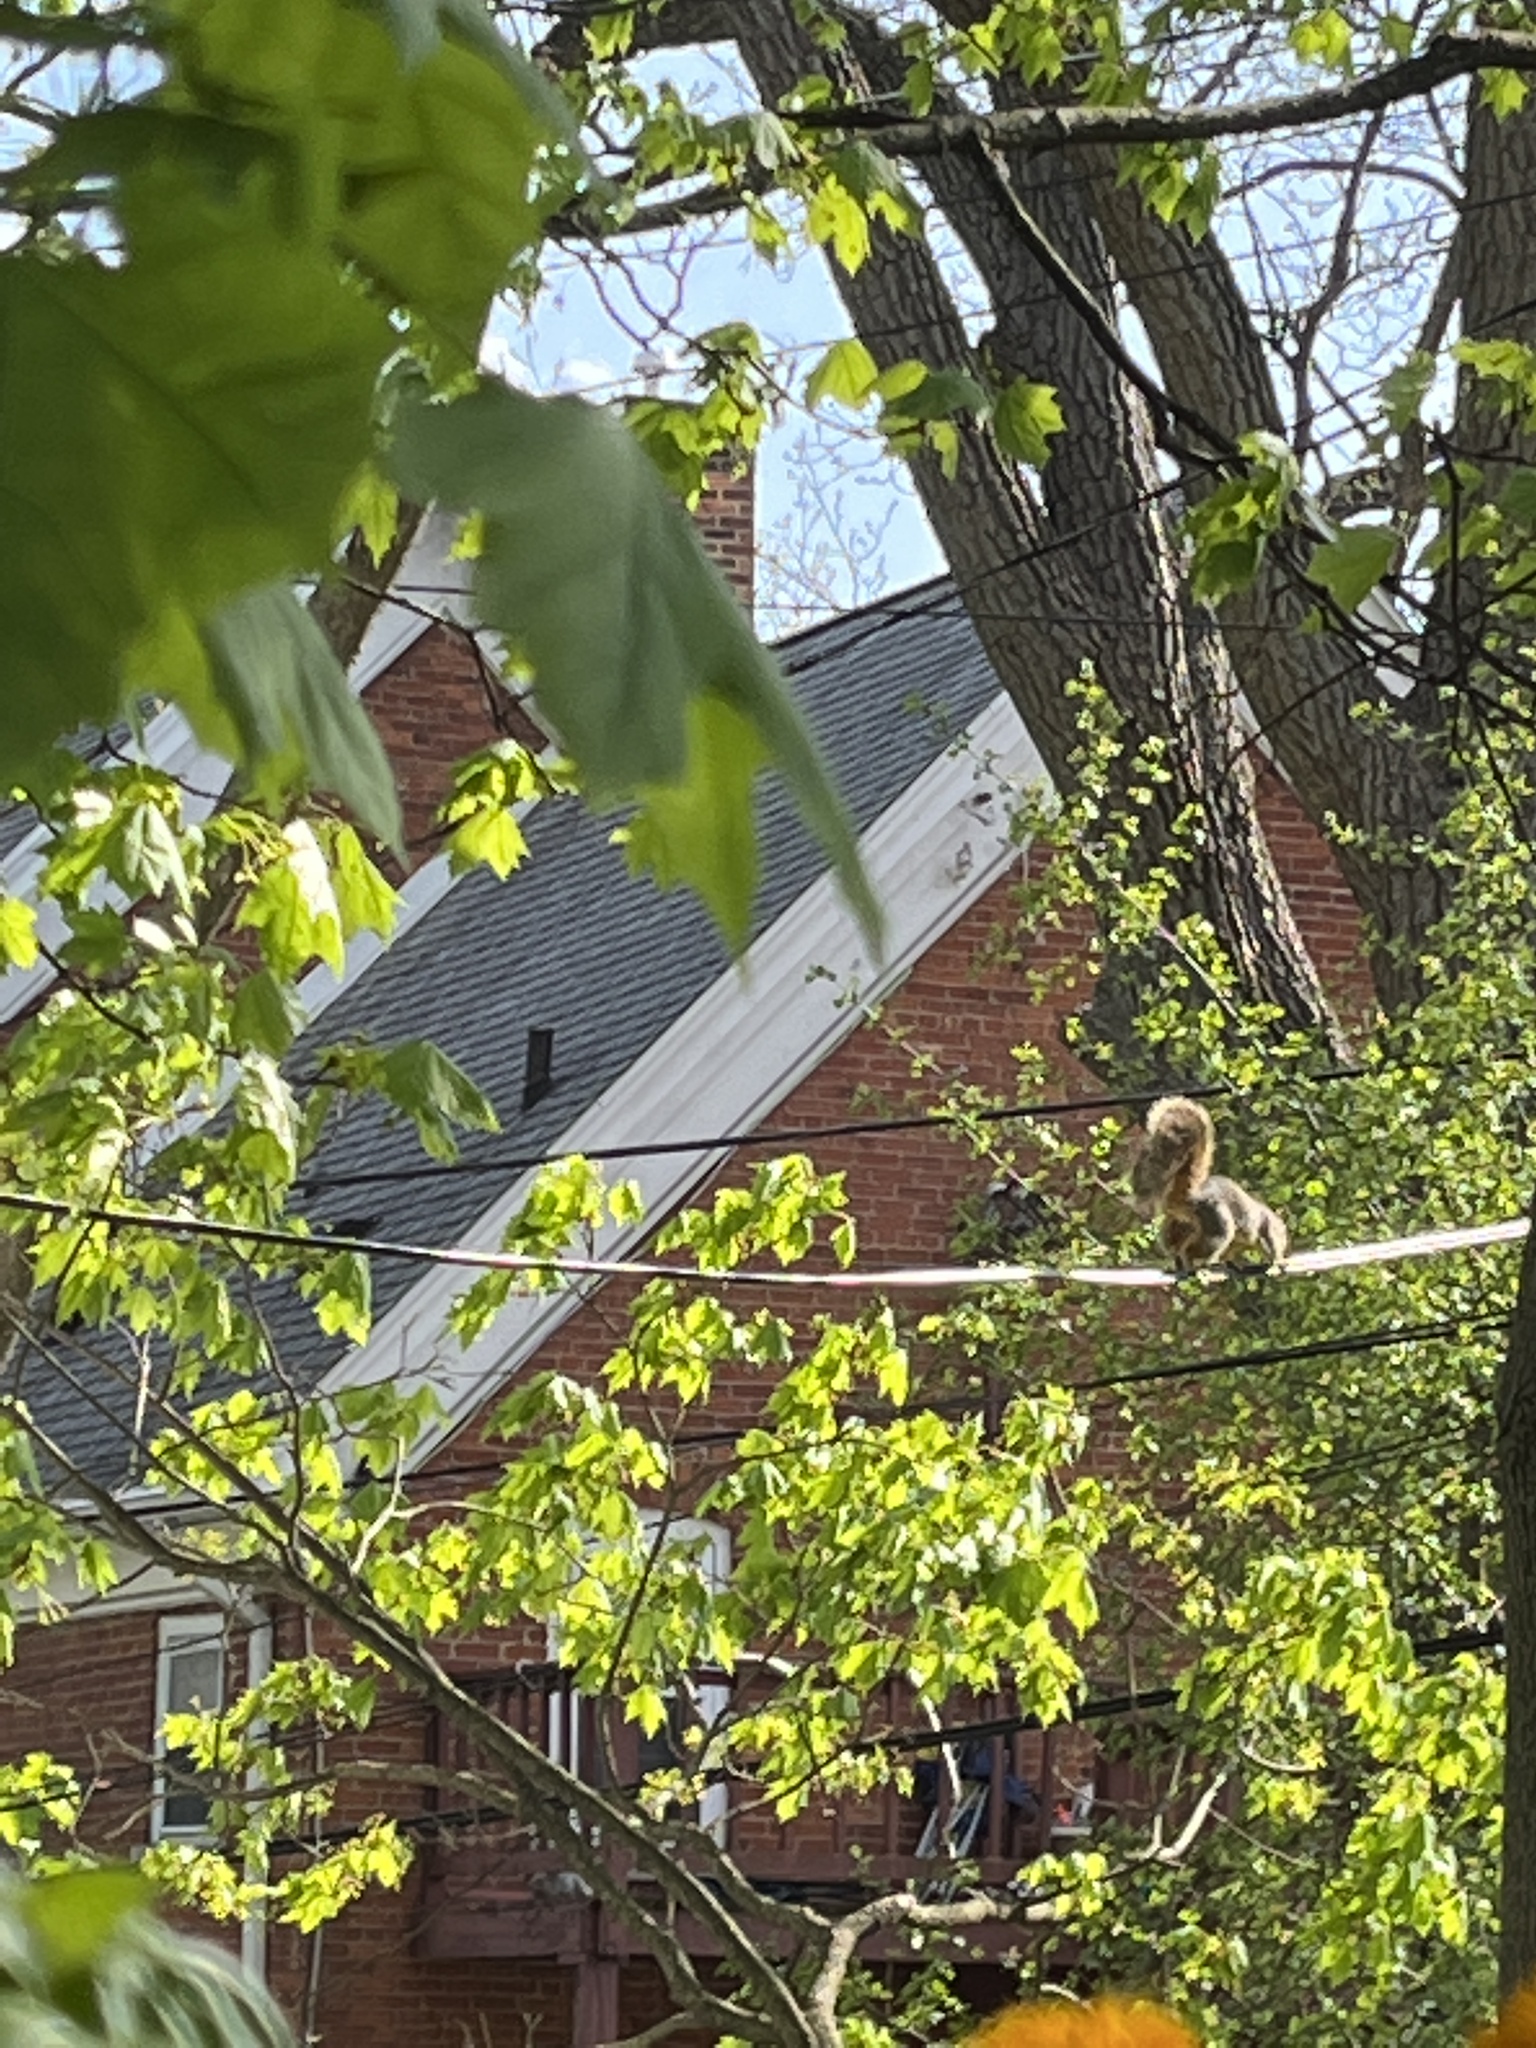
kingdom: Animalia
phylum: Chordata
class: Mammalia
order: Rodentia
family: Sciuridae
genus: Sciurus
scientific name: Sciurus niger
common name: Fox squirrel
